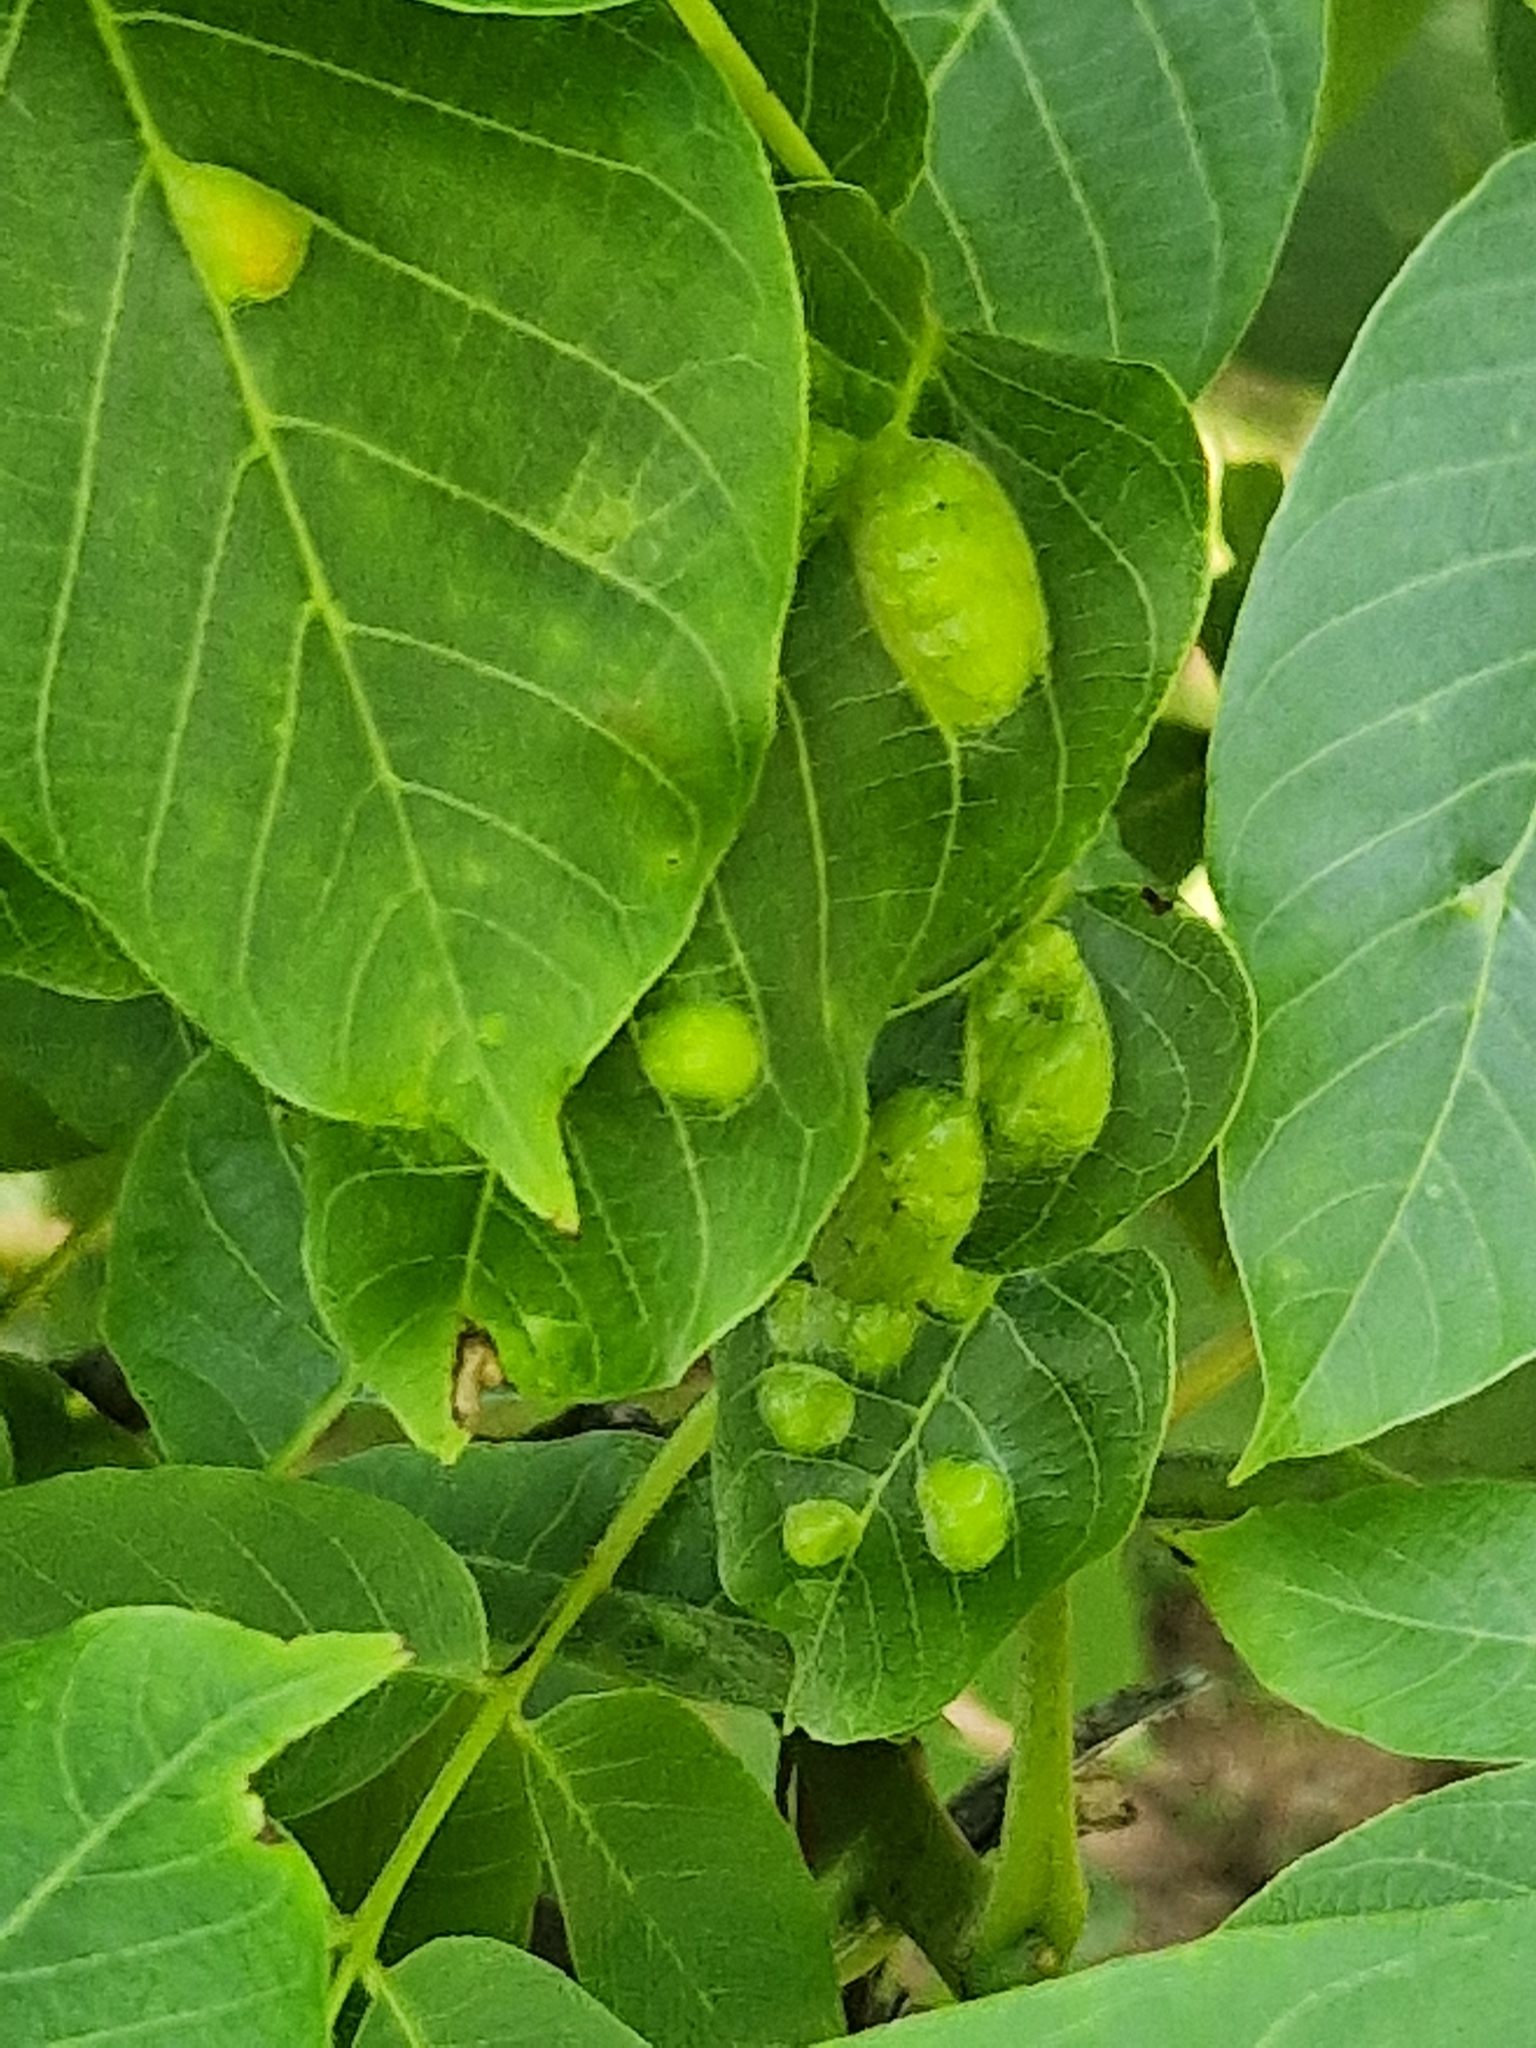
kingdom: Animalia
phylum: Arthropoda
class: Arachnida
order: Trombidiformes
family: Eriophyidae
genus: Aceria
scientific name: Aceria erinea
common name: Persian walnut erineum mite
